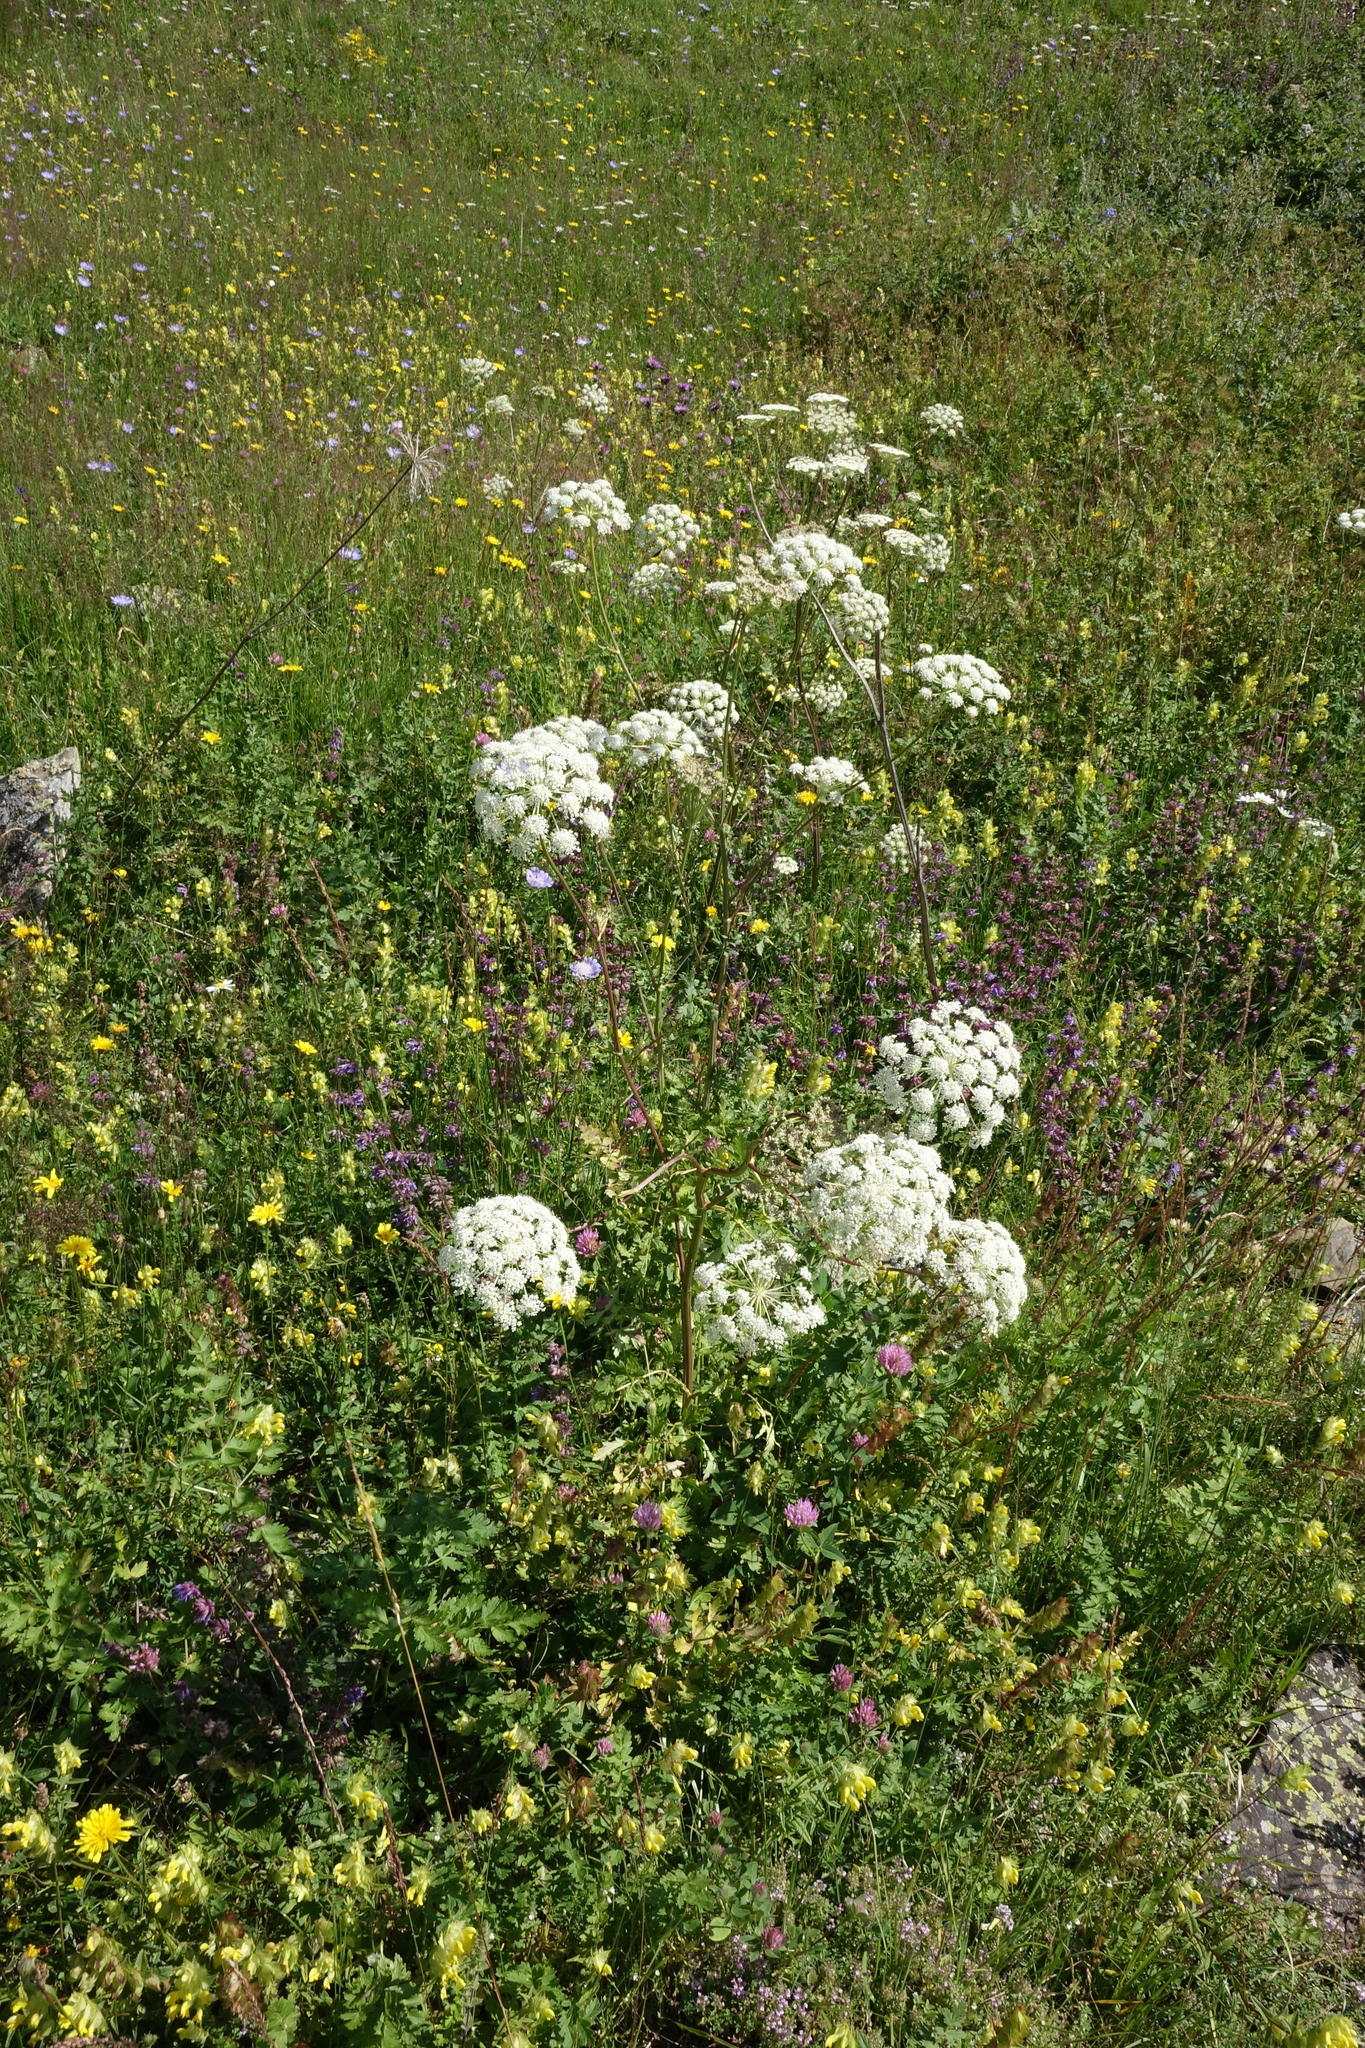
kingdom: Plantae
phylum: Tracheophyta
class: Magnoliopsida
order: Apiales
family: Apiaceae
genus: Seseli
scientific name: Seseli libanotis
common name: Mooncarrot
